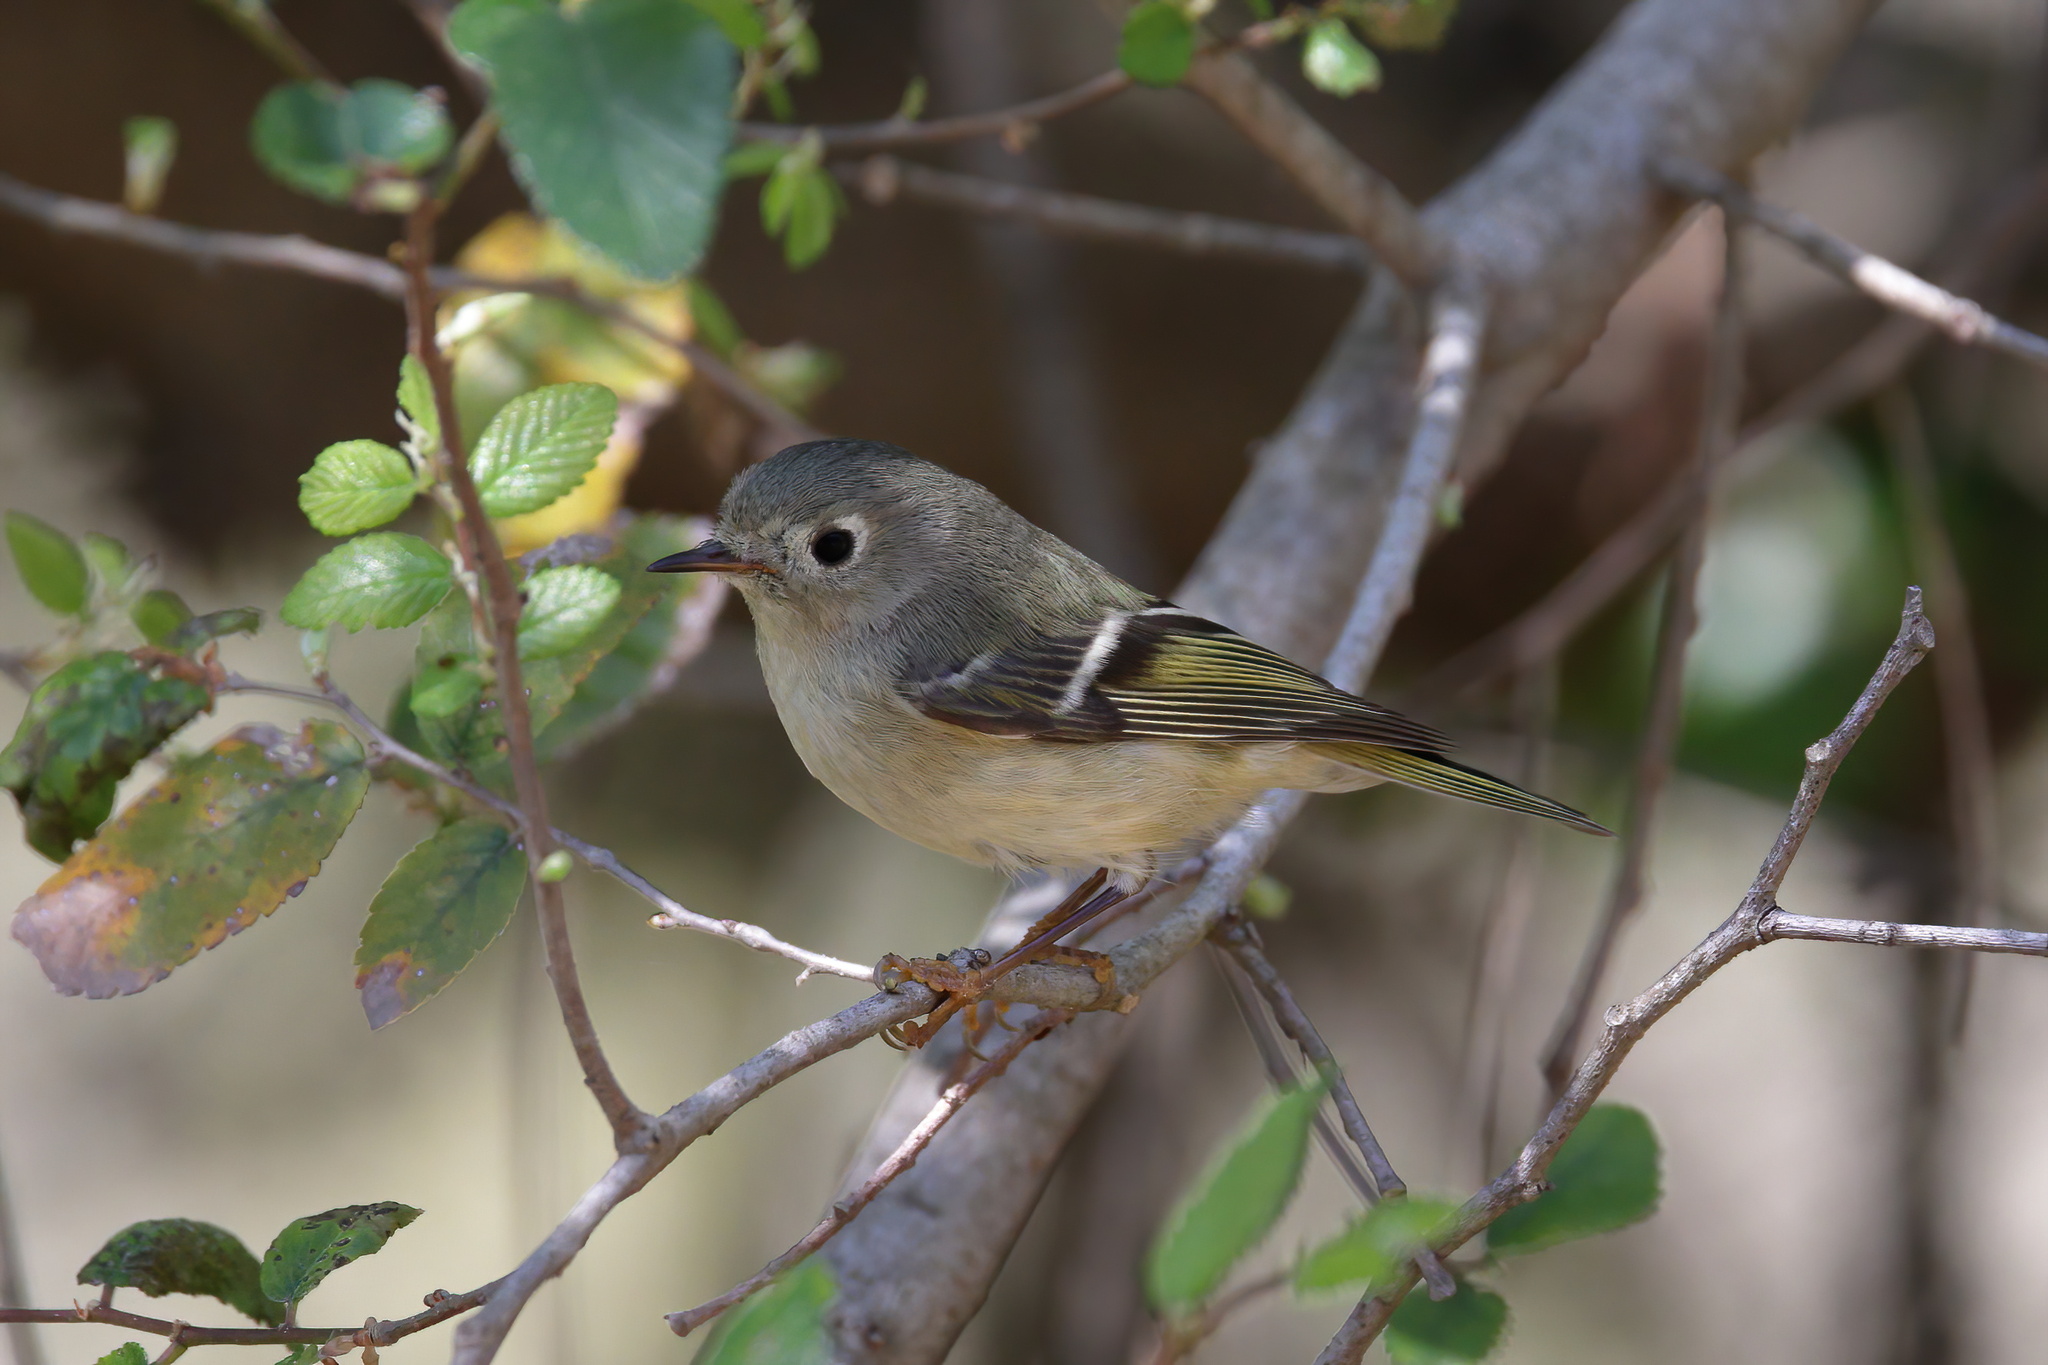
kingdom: Animalia
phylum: Chordata
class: Aves
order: Passeriformes
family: Regulidae
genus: Regulus
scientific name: Regulus calendula
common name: Ruby-crowned kinglet
